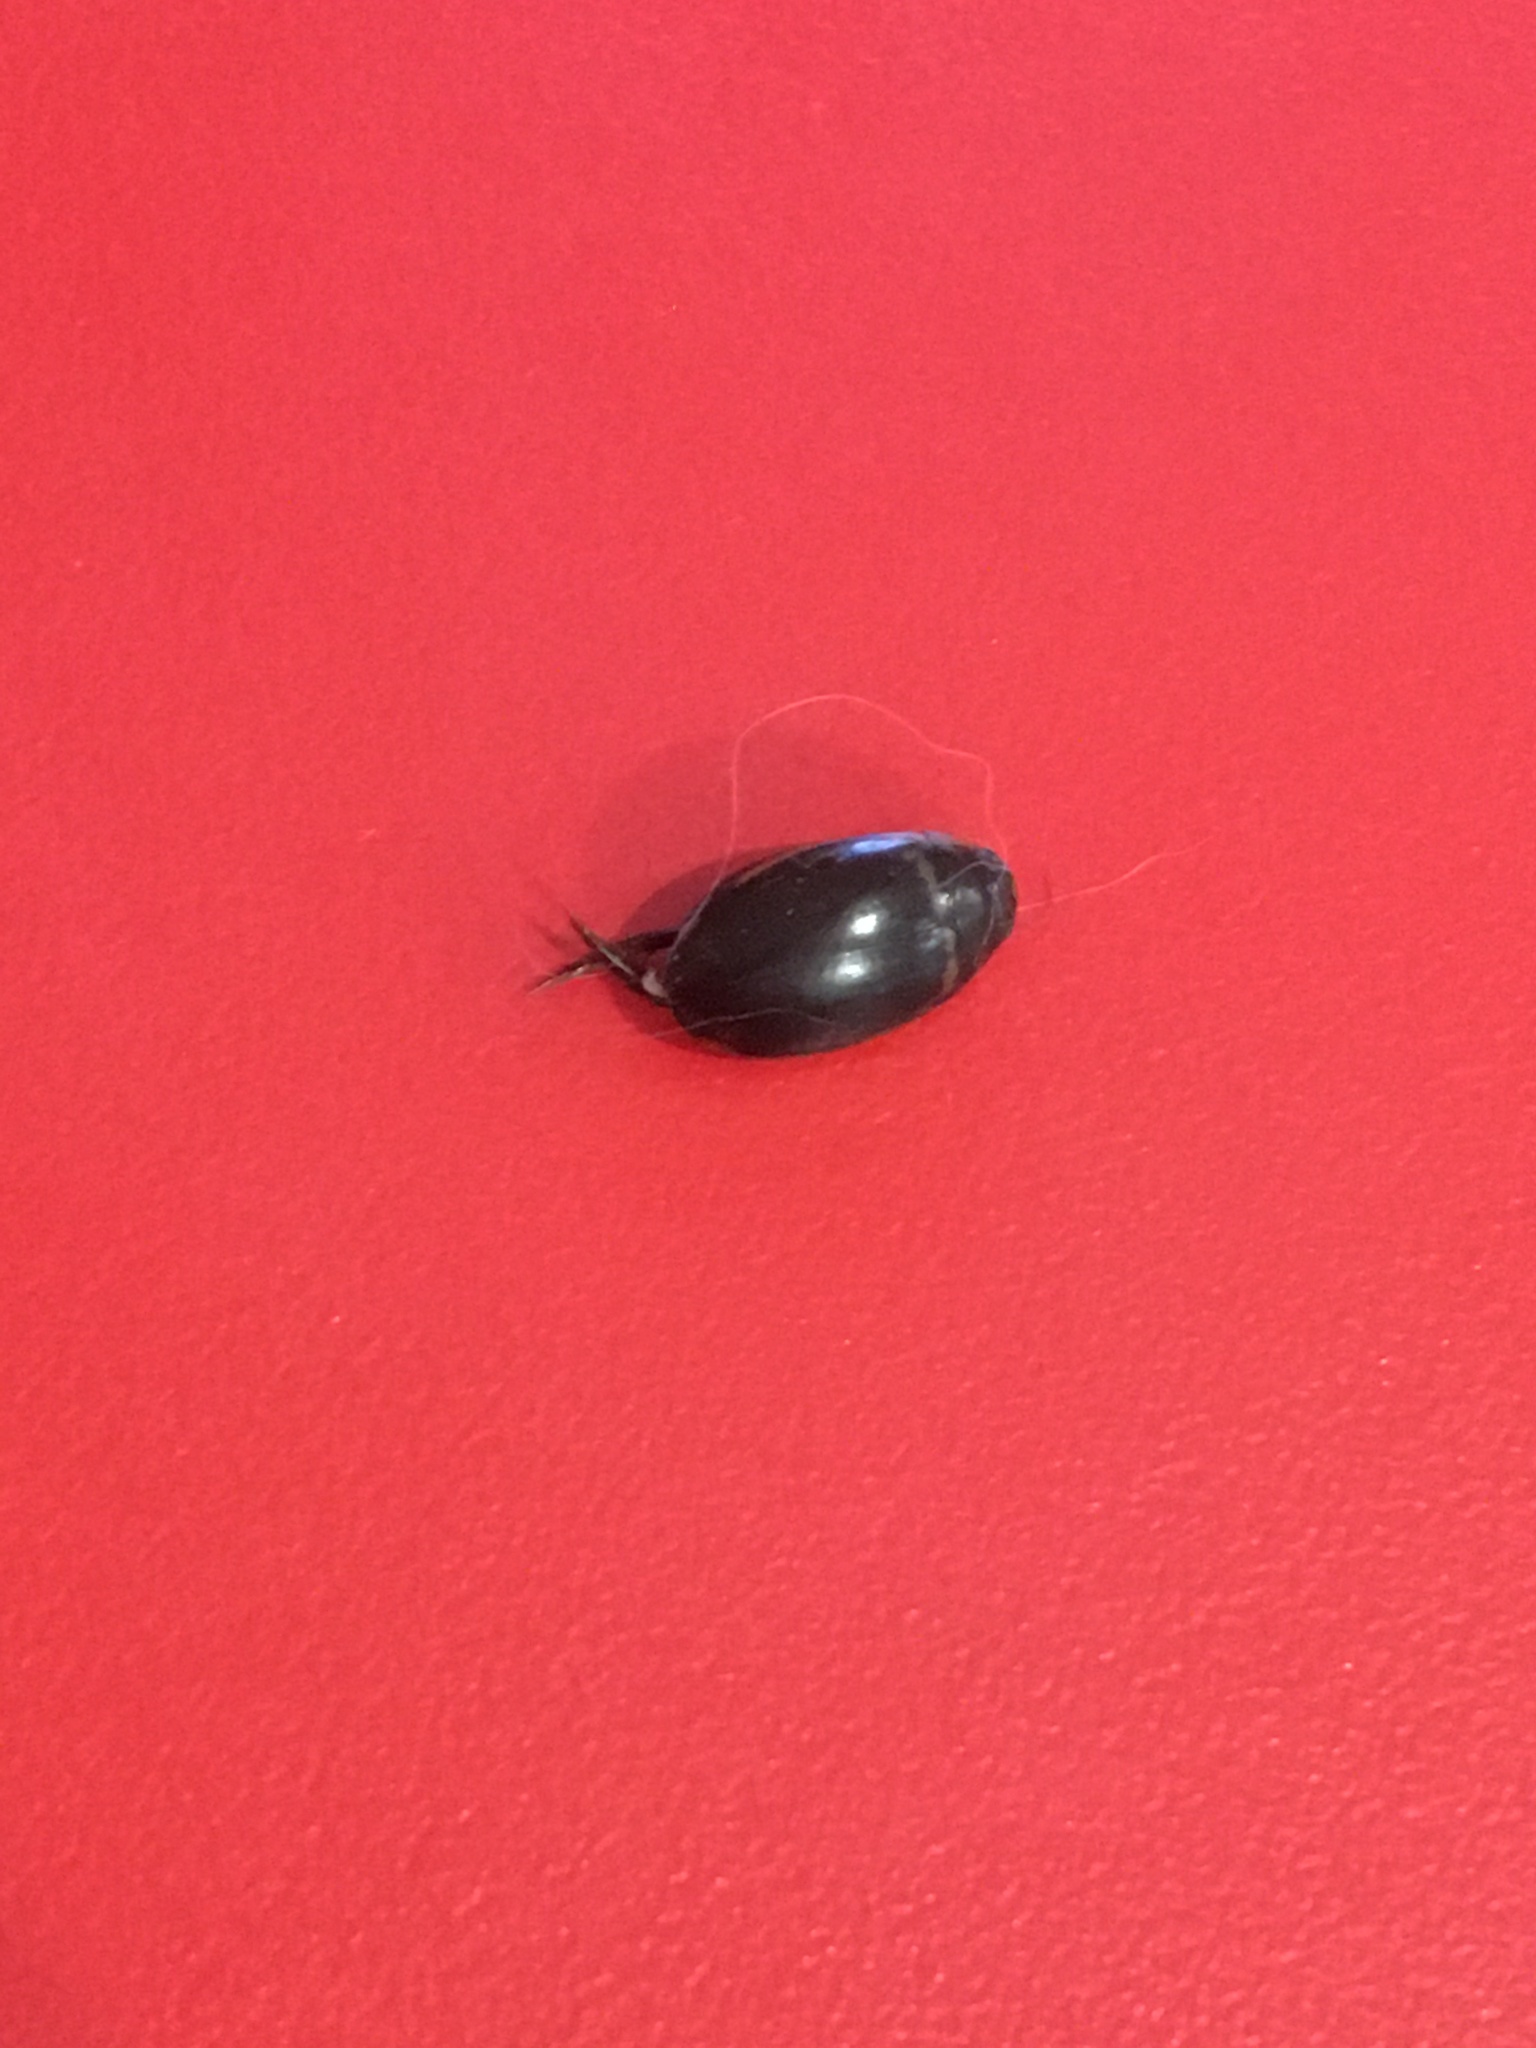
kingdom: Animalia
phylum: Arthropoda
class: Insecta
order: Coleoptera
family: Dytiscidae
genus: Thermonectus
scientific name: Thermonectus basillaris
